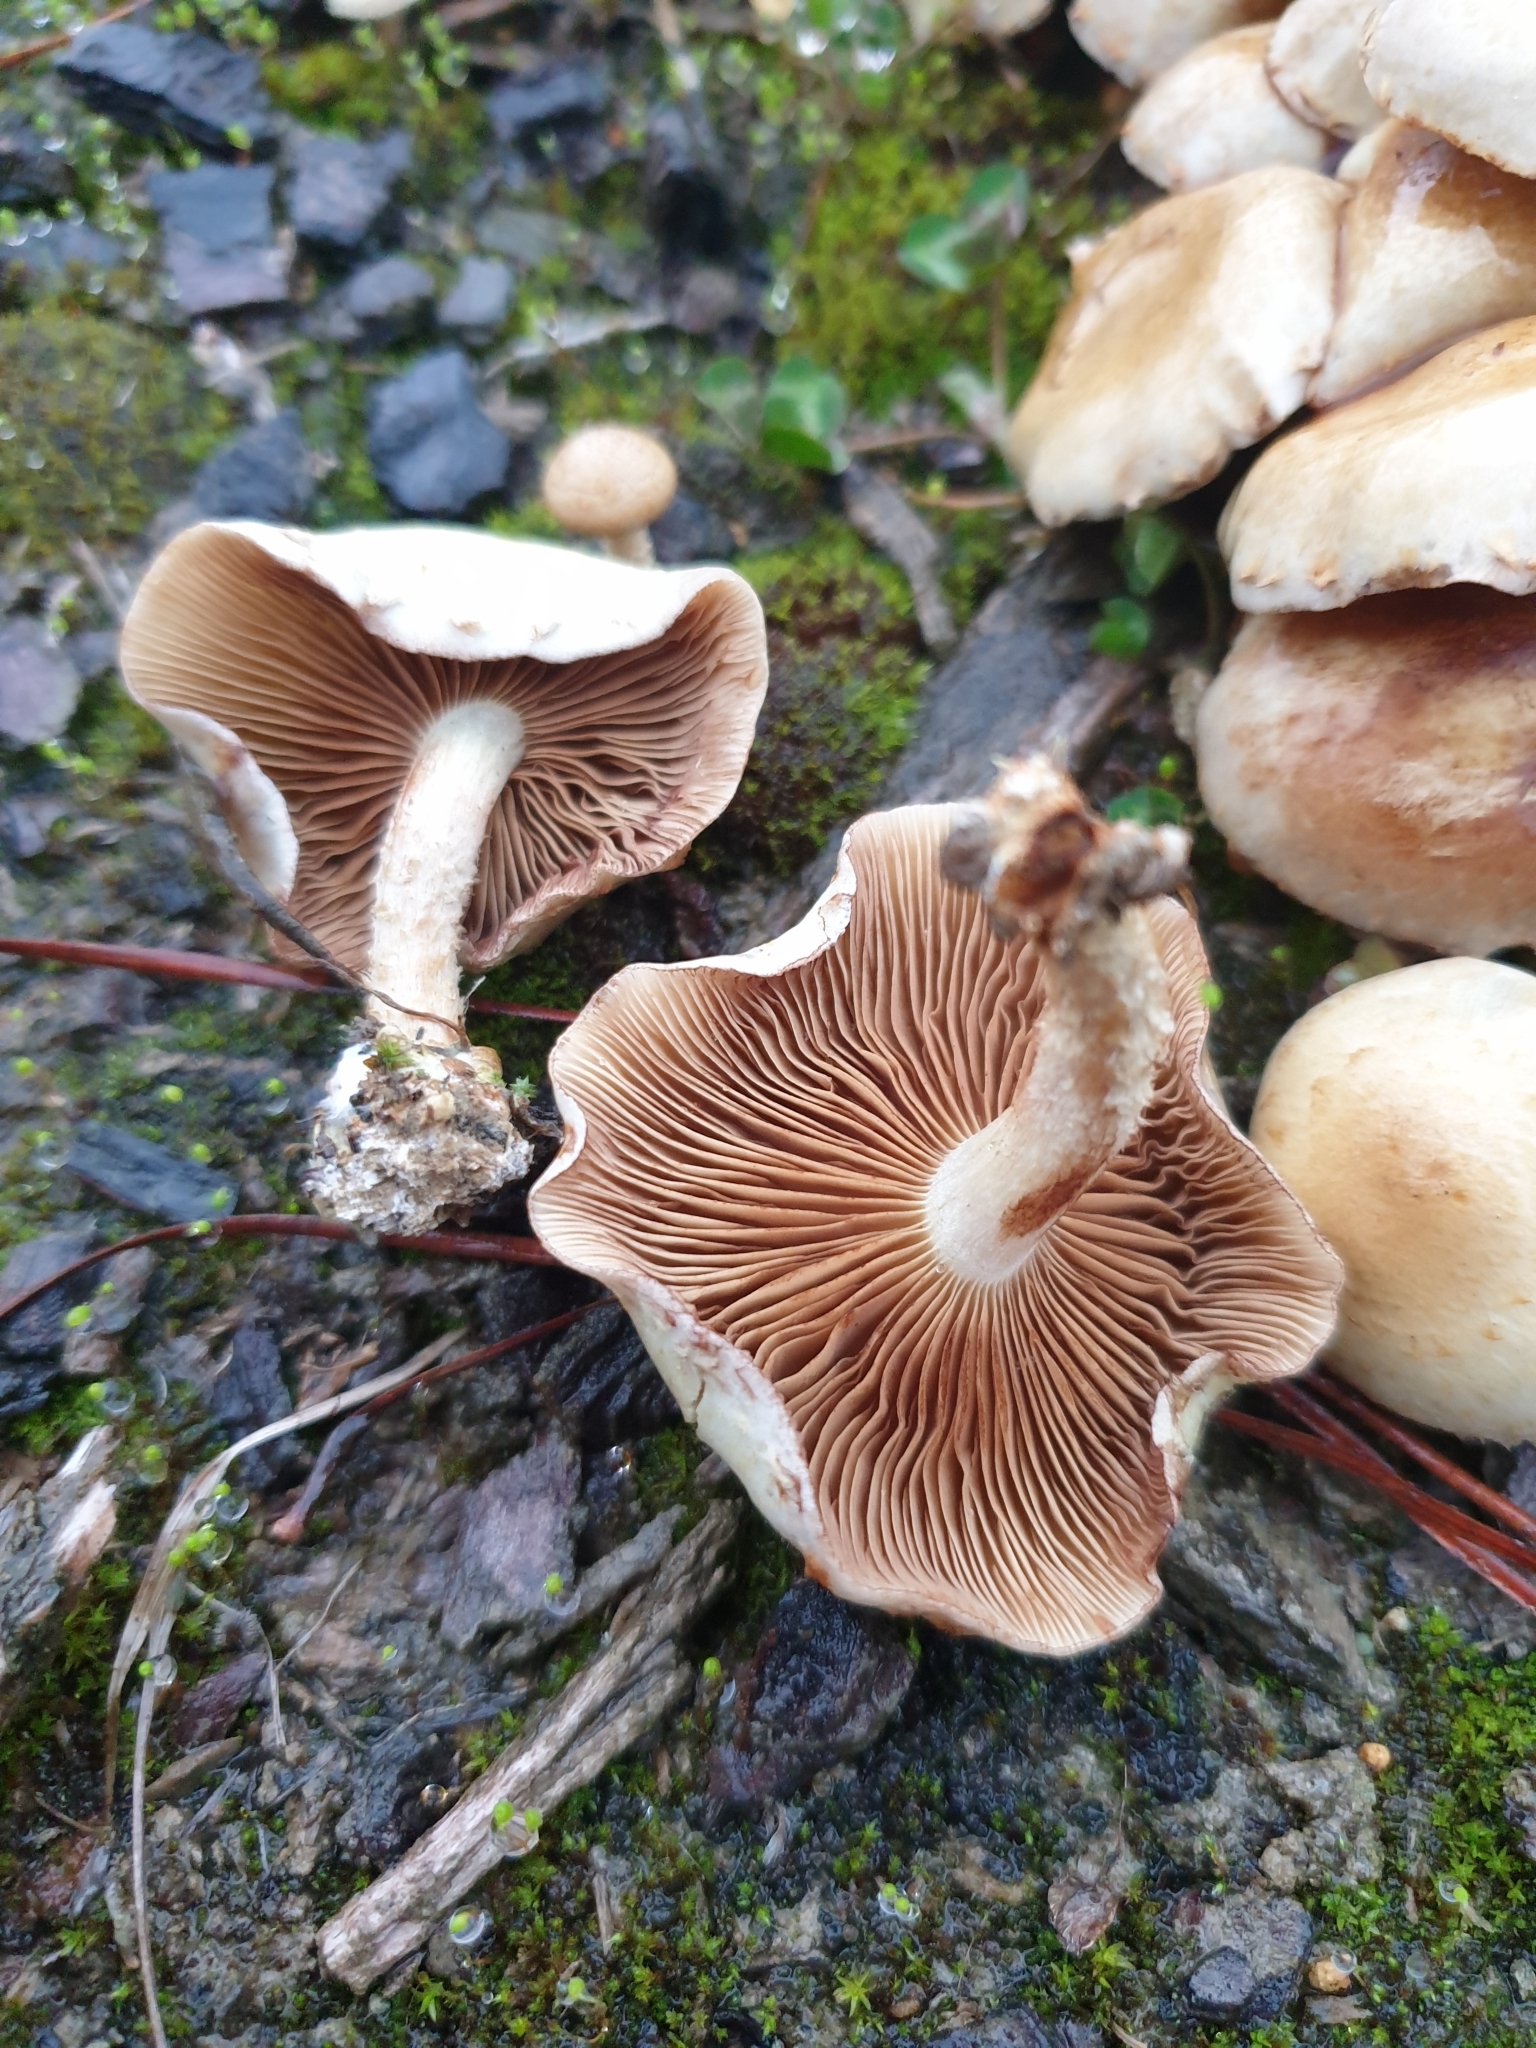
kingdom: Fungi
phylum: Basidiomycota
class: Agaricomycetes
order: Agaricales
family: Strophariaceae
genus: Pholiota
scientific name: Pholiota gummosa
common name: Sticky scalycap
